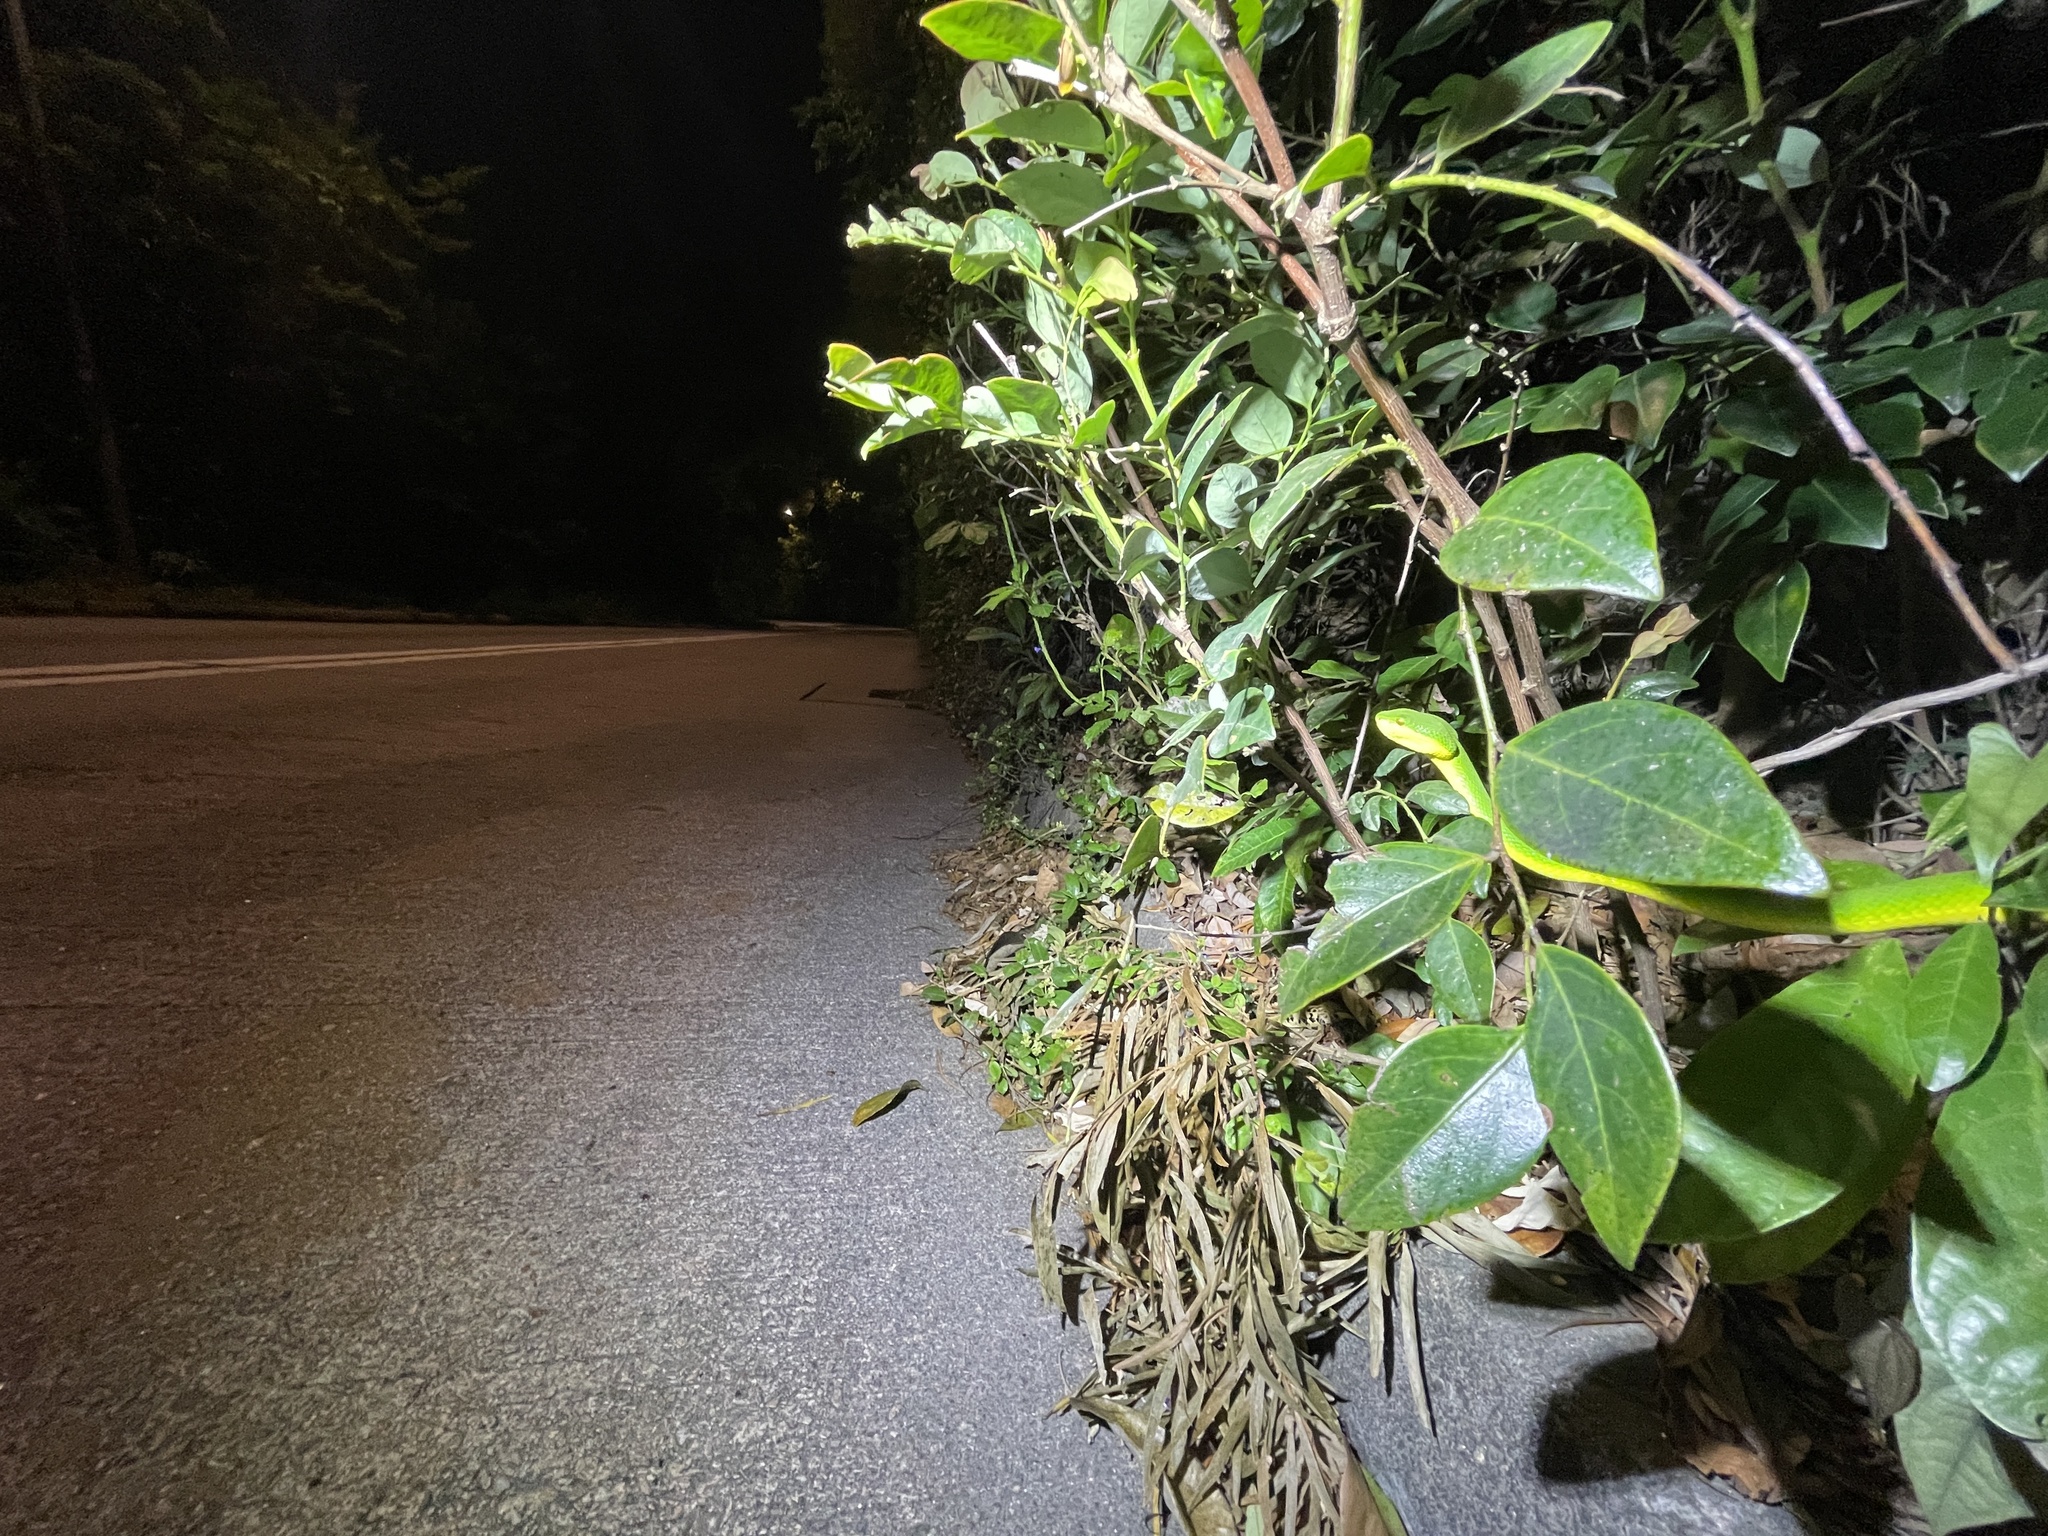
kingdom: Animalia
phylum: Chordata
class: Squamata
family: Viperidae
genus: Trimeresurus
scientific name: Trimeresurus albolabris
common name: White-lipped pitviper
